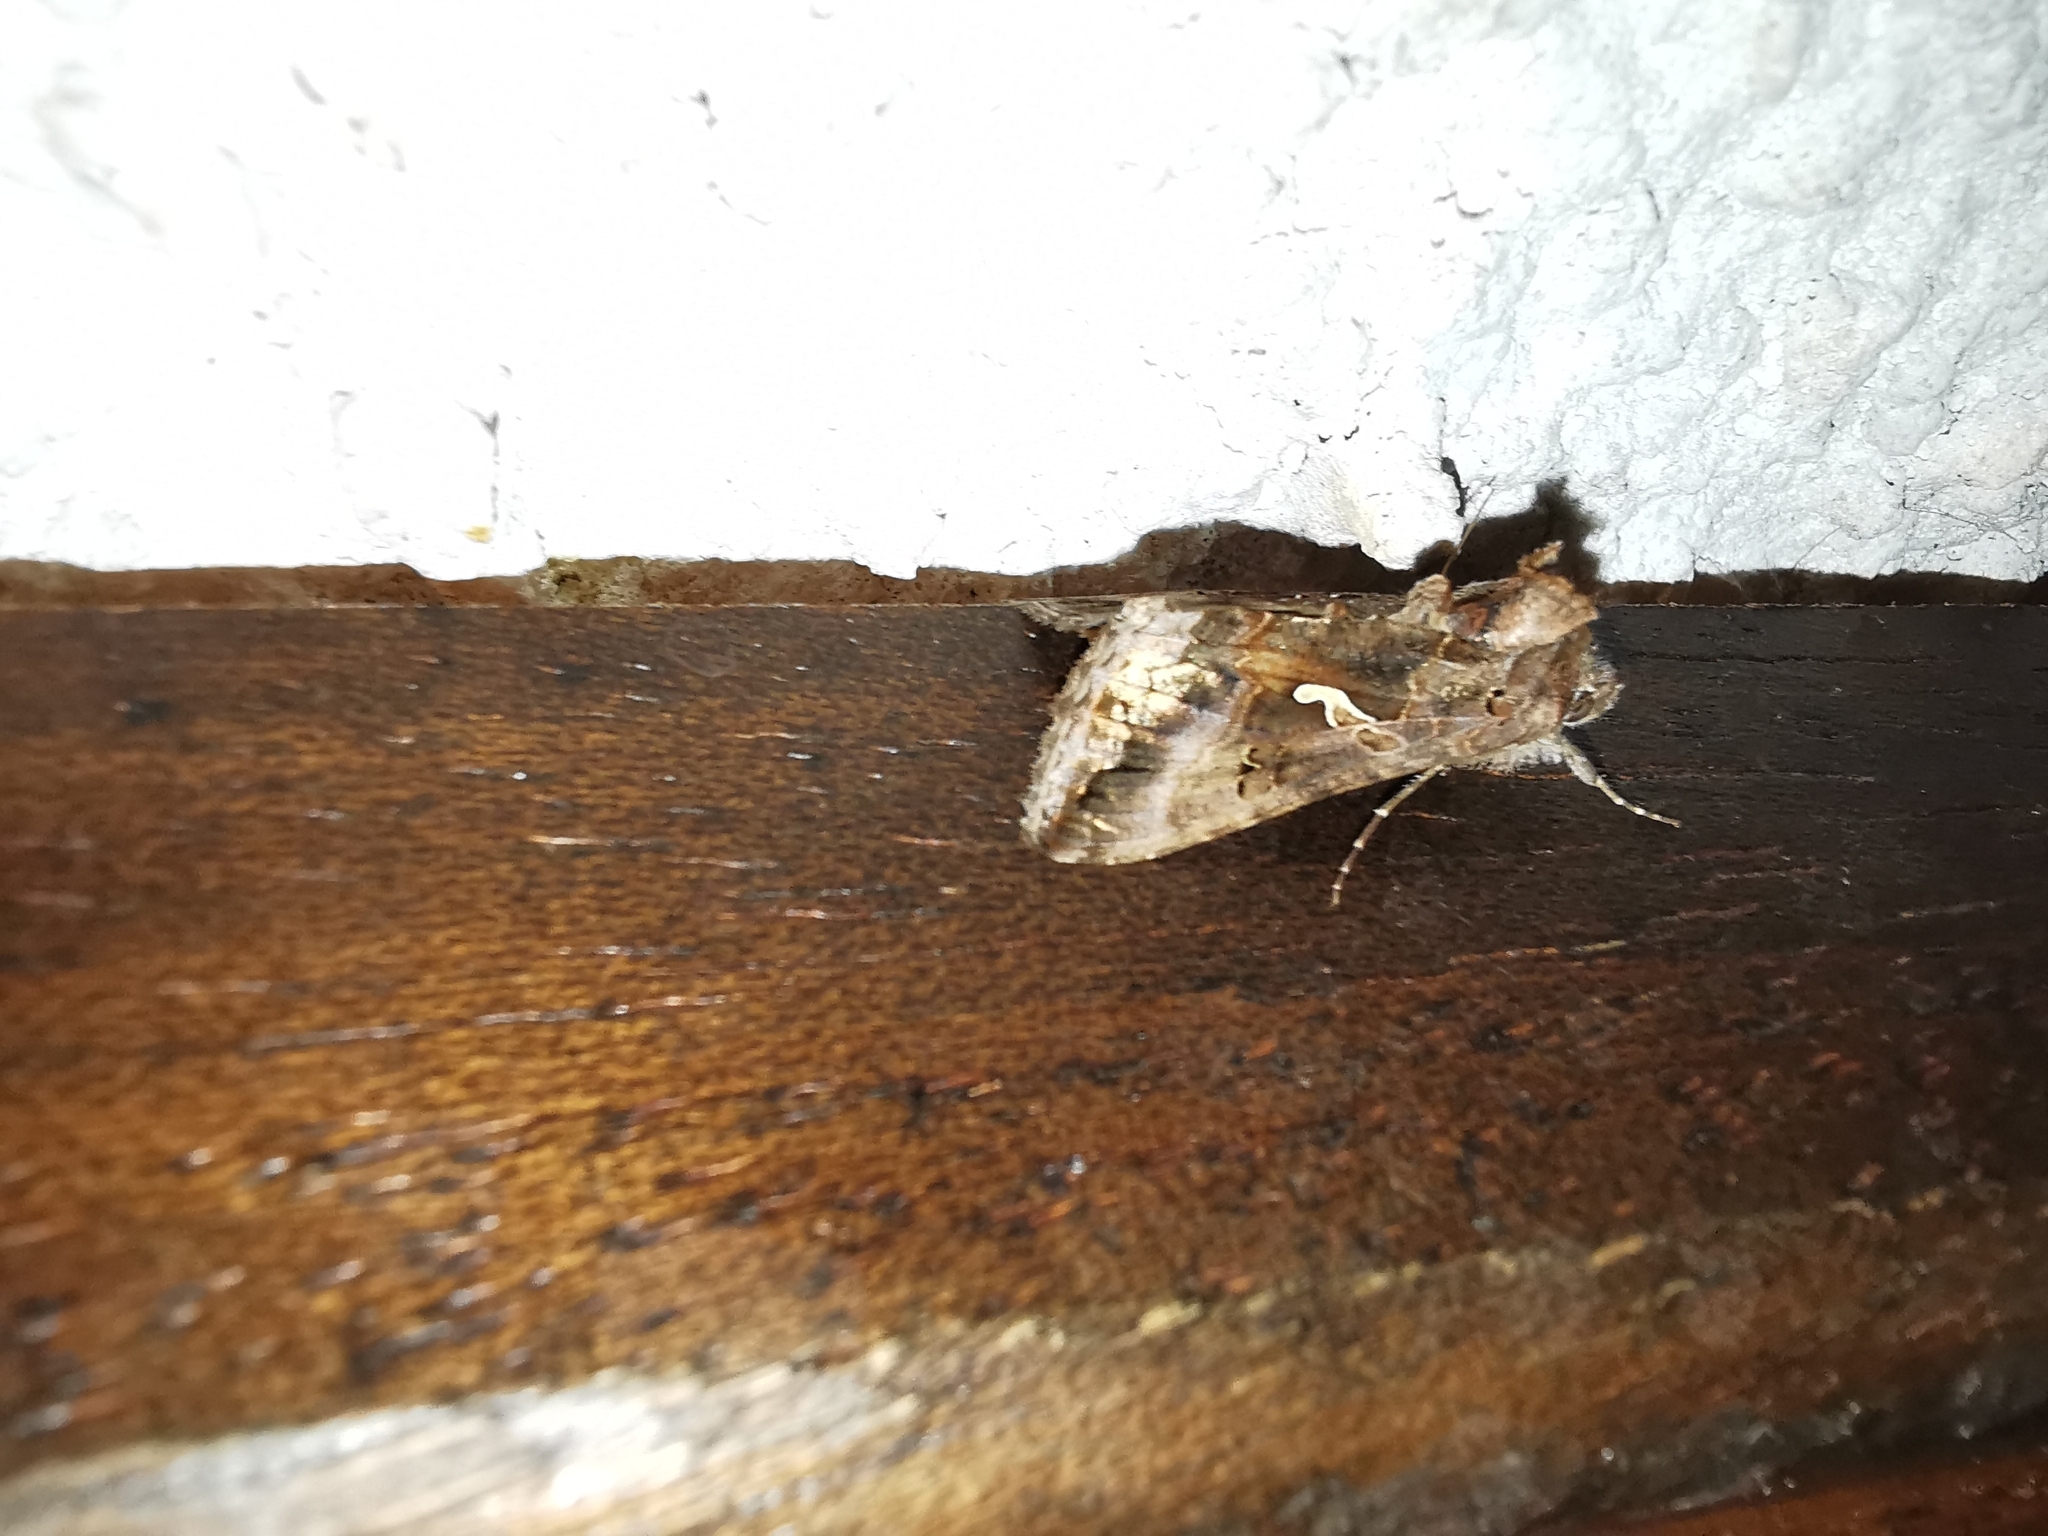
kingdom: Animalia
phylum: Arthropoda
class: Insecta
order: Lepidoptera
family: Noctuidae
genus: Autographa
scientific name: Autographa gamma
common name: Silver y
